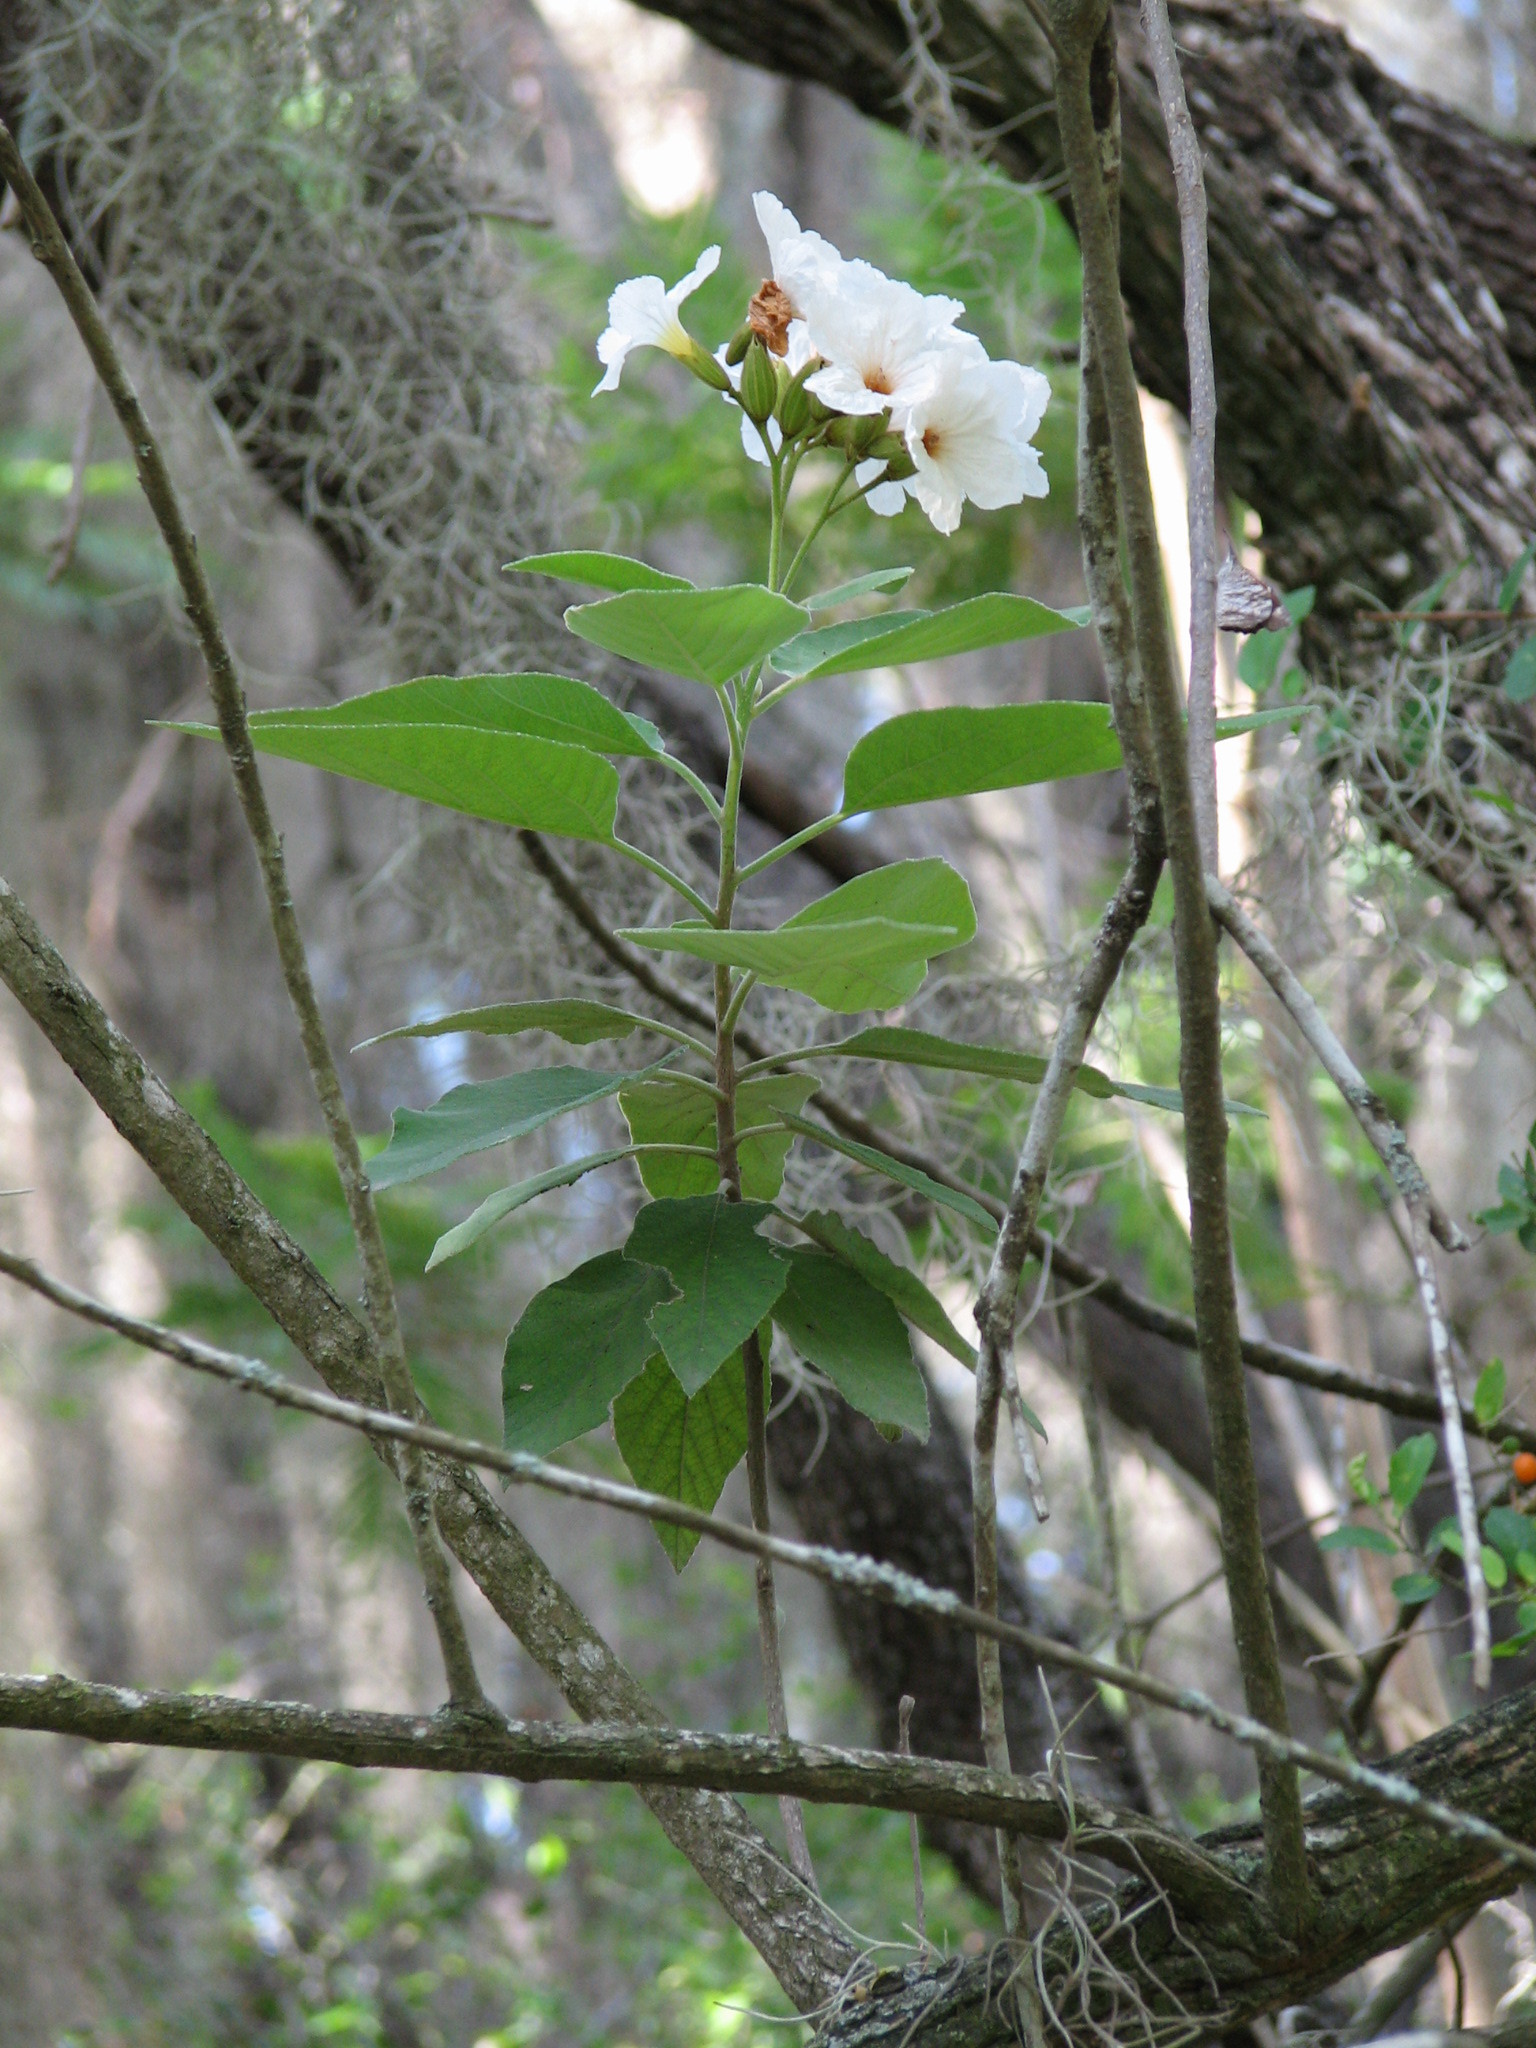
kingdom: Plantae
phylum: Tracheophyta
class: Magnoliopsida
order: Boraginales
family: Cordiaceae
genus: Cordia
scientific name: Cordia boissieri
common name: Mexican-olive
